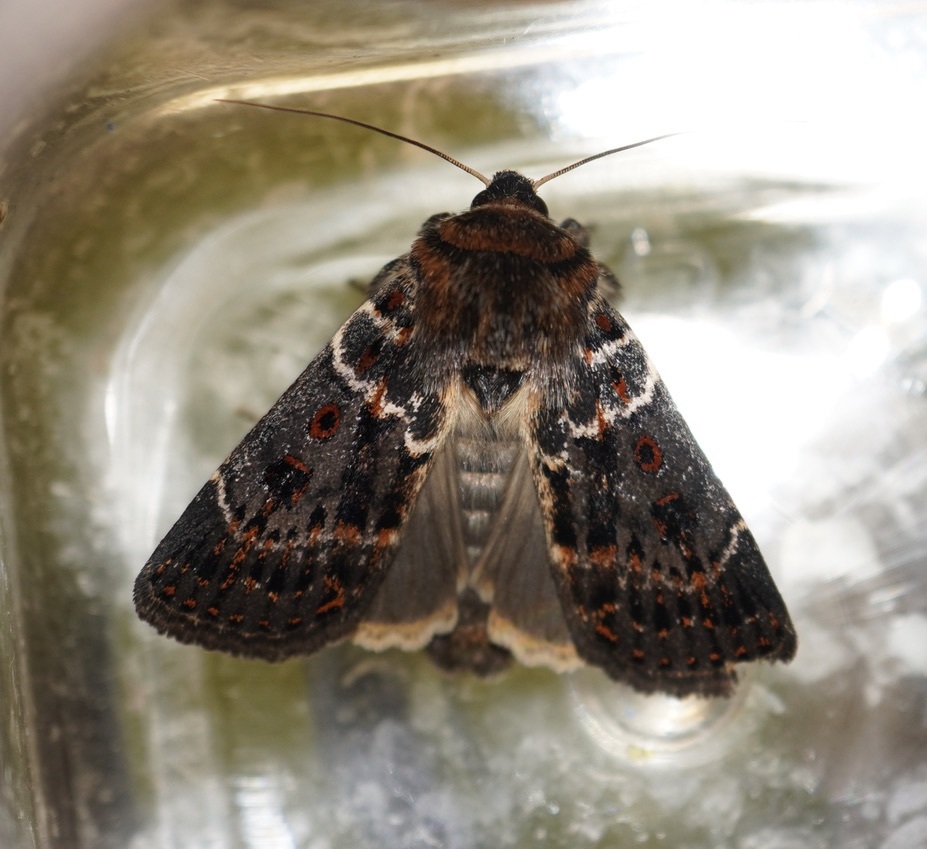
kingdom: Animalia
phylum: Arthropoda
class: Insecta
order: Lepidoptera
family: Noctuidae
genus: Proteuxoa
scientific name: Proteuxoa sanguinipuncta
